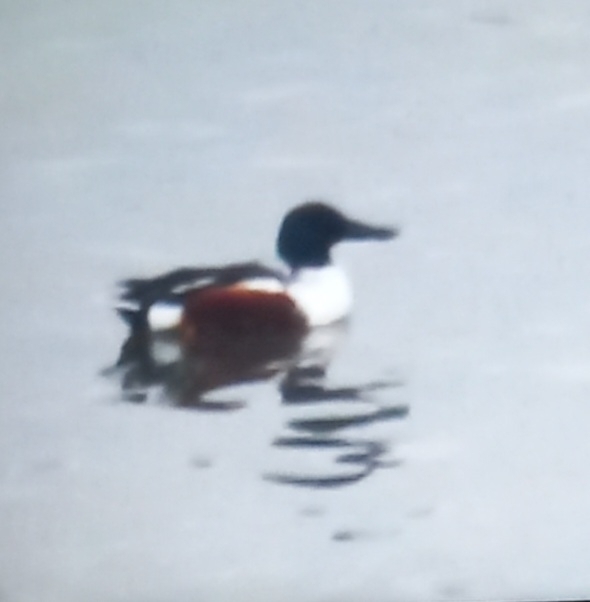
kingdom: Animalia
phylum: Chordata
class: Aves
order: Anseriformes
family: Anatidae
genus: Spatula
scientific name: Spatula clypeata
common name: Northern shoveler
